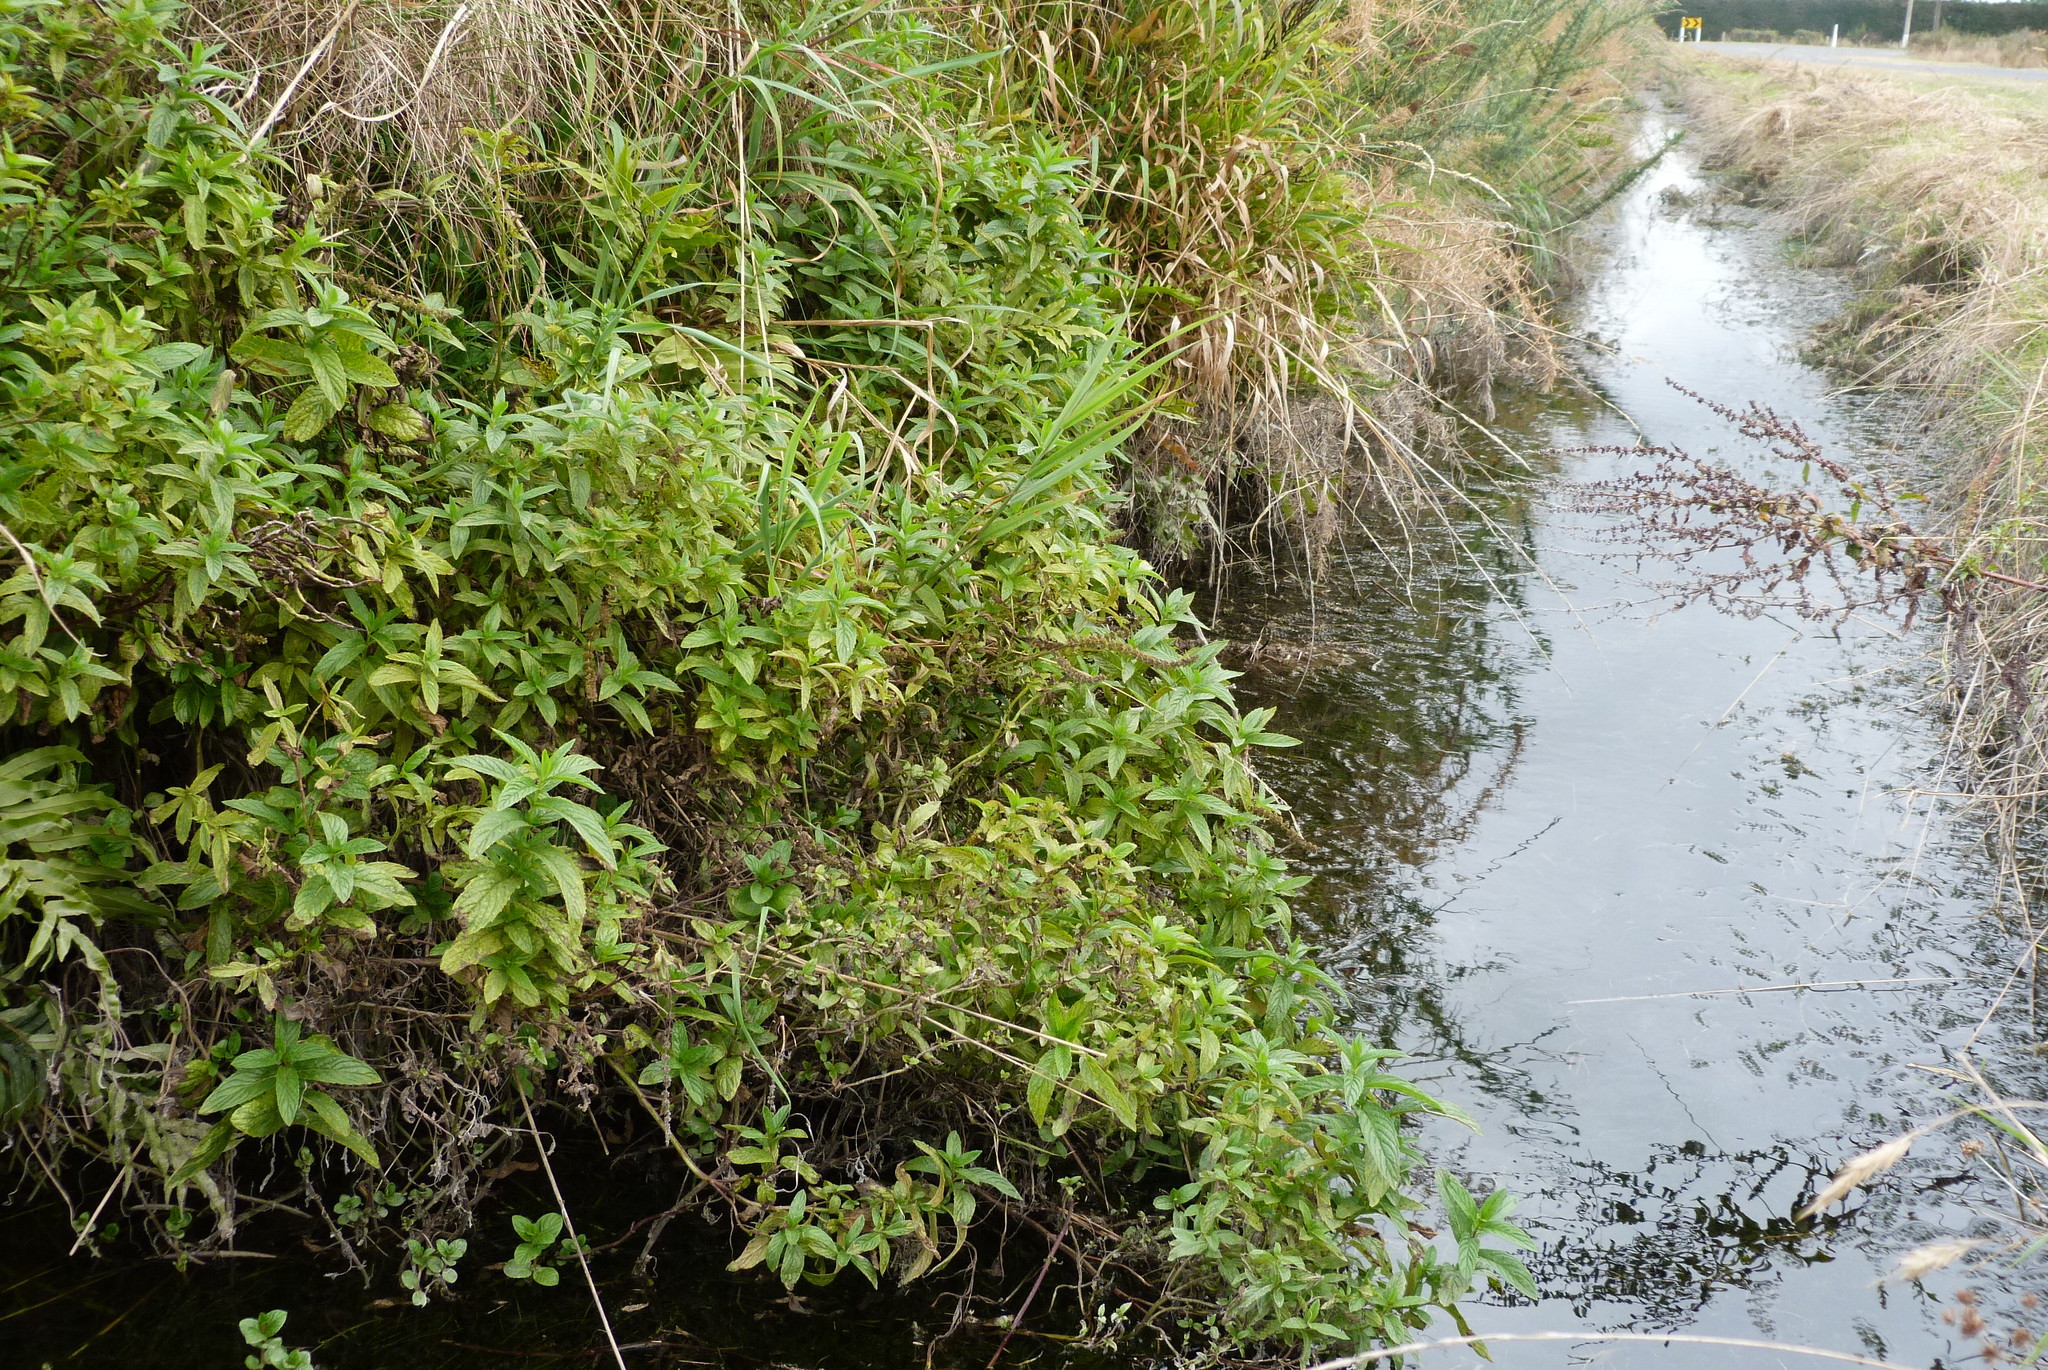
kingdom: Plantae
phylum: Tracheophyta
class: Magnoliopsida
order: Lamiales
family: Lamiaceae
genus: Mentha
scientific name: Mentha spicata
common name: Spearmint
